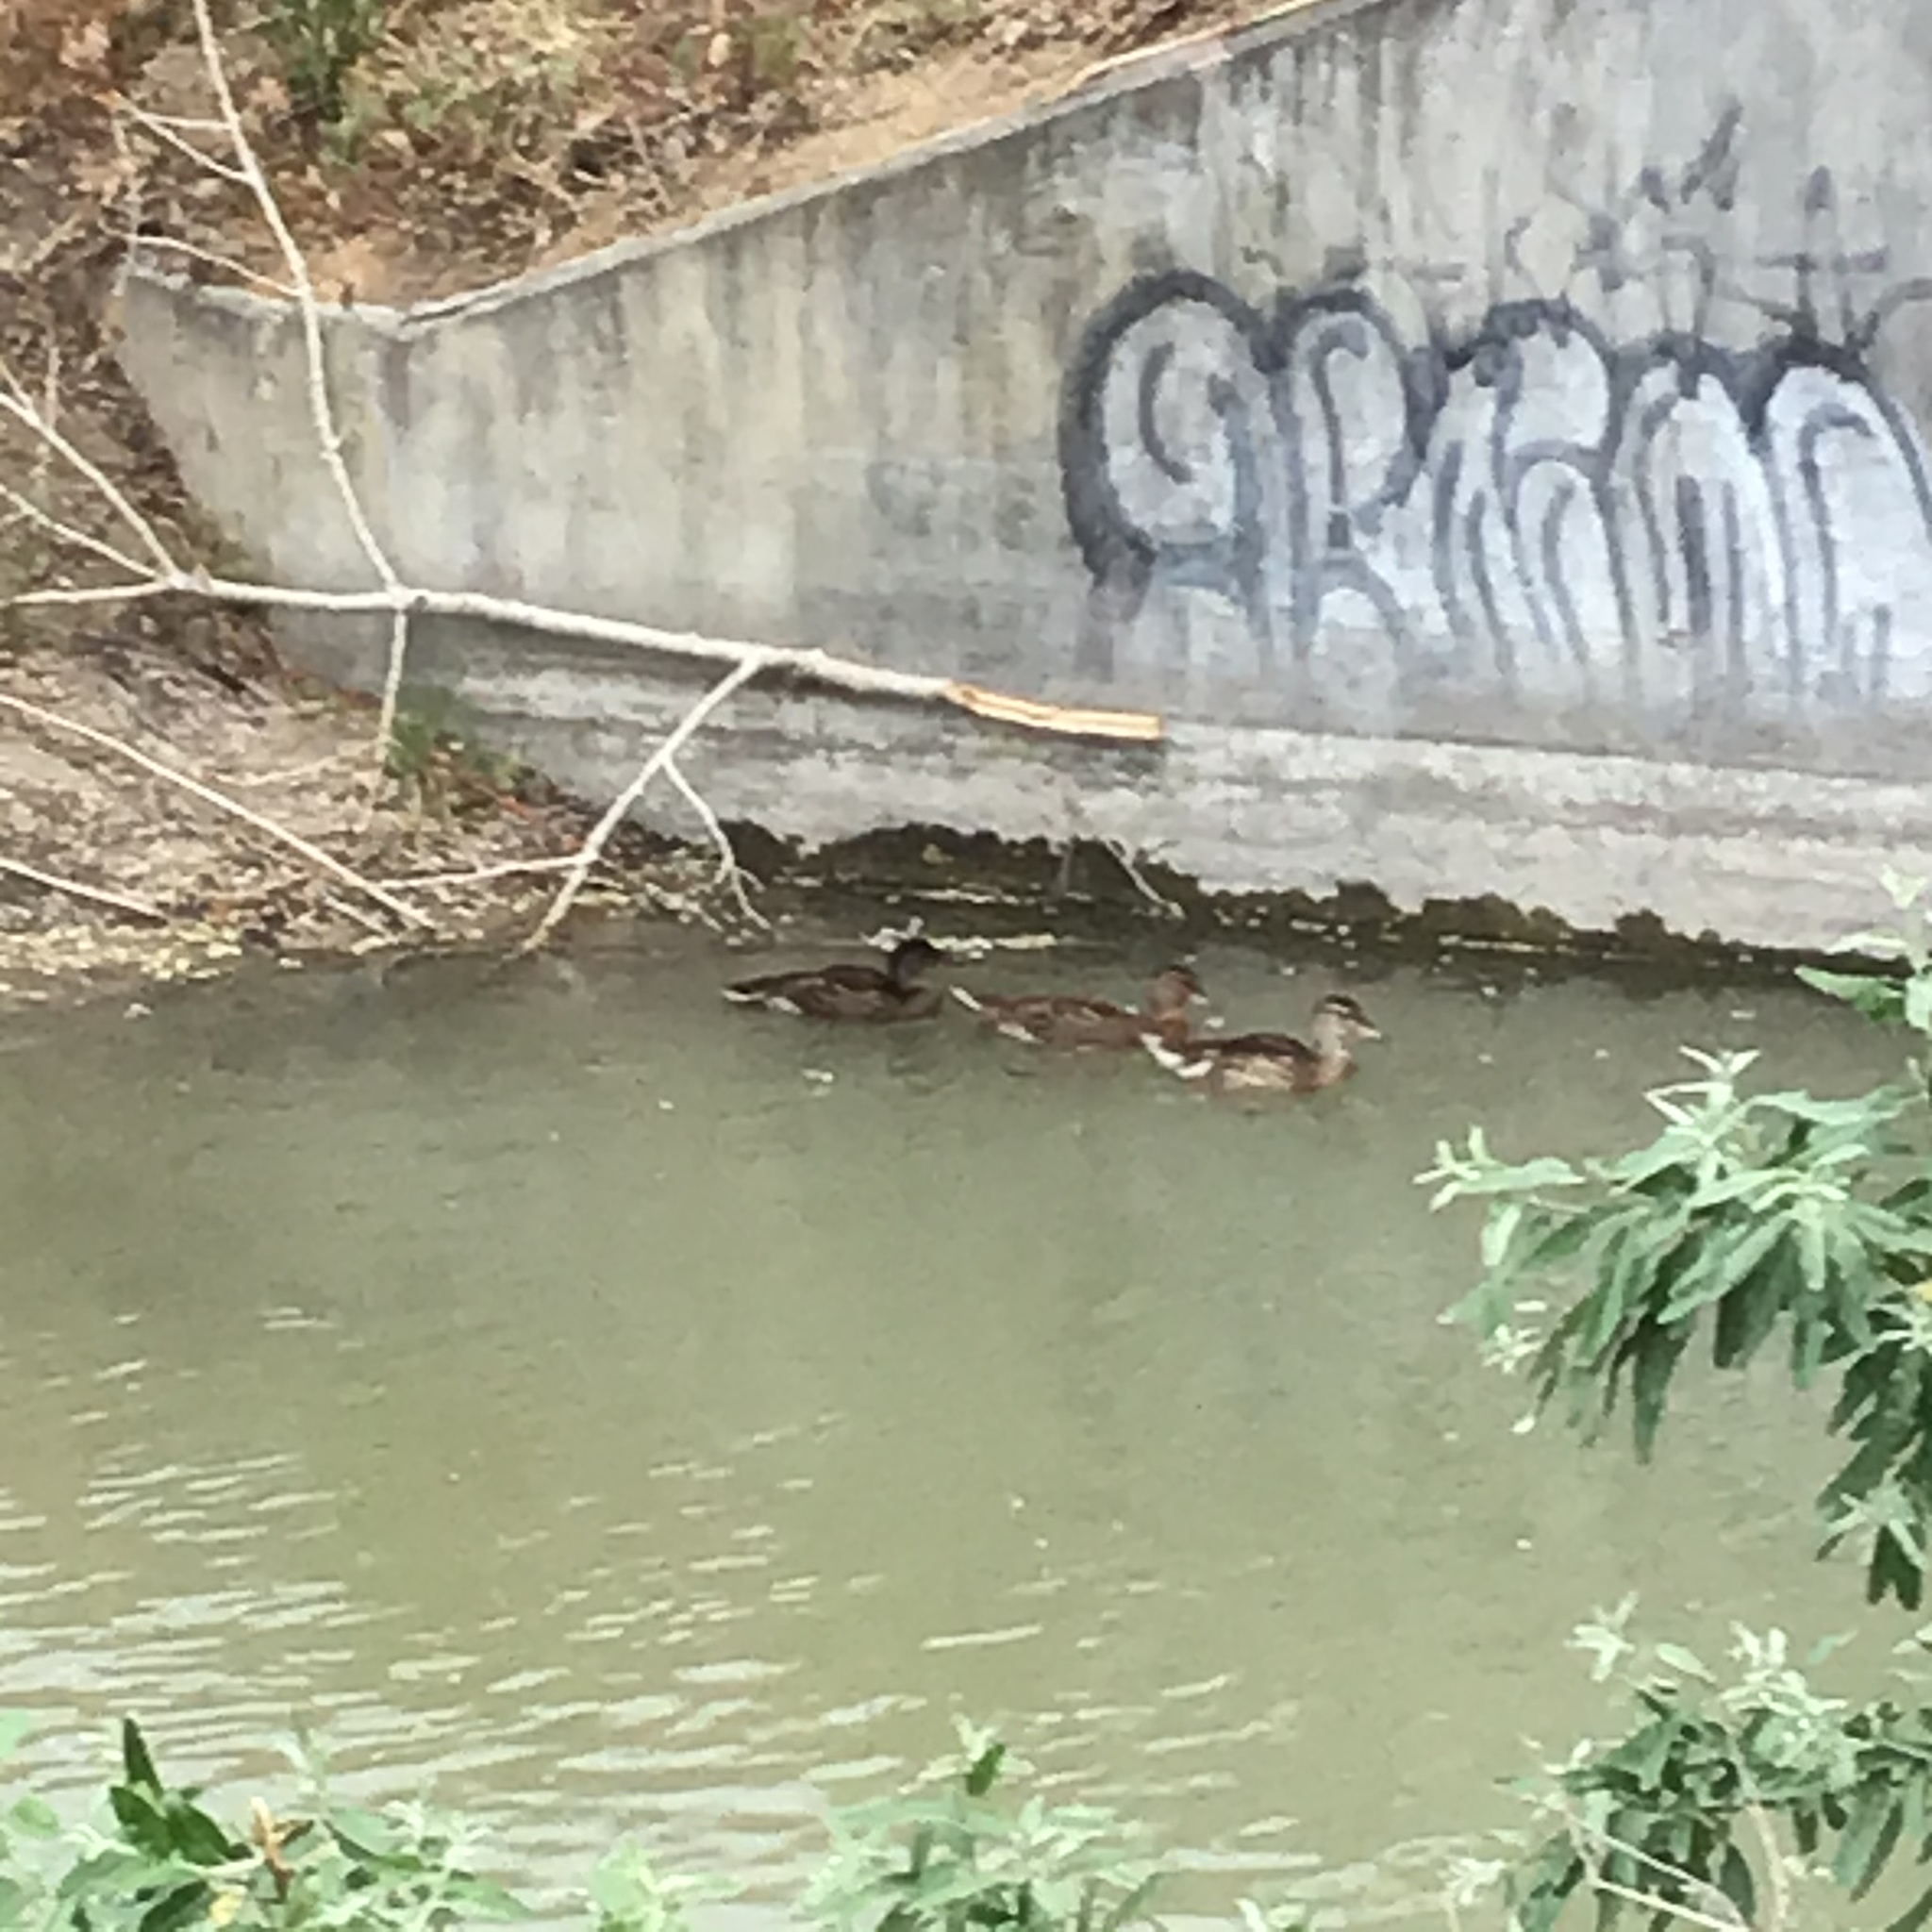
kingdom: Animalia
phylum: Chordata
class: Aves
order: Anseriformes
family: Anatidae
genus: Anas
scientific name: Anas platyrhynchos
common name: Mallard
